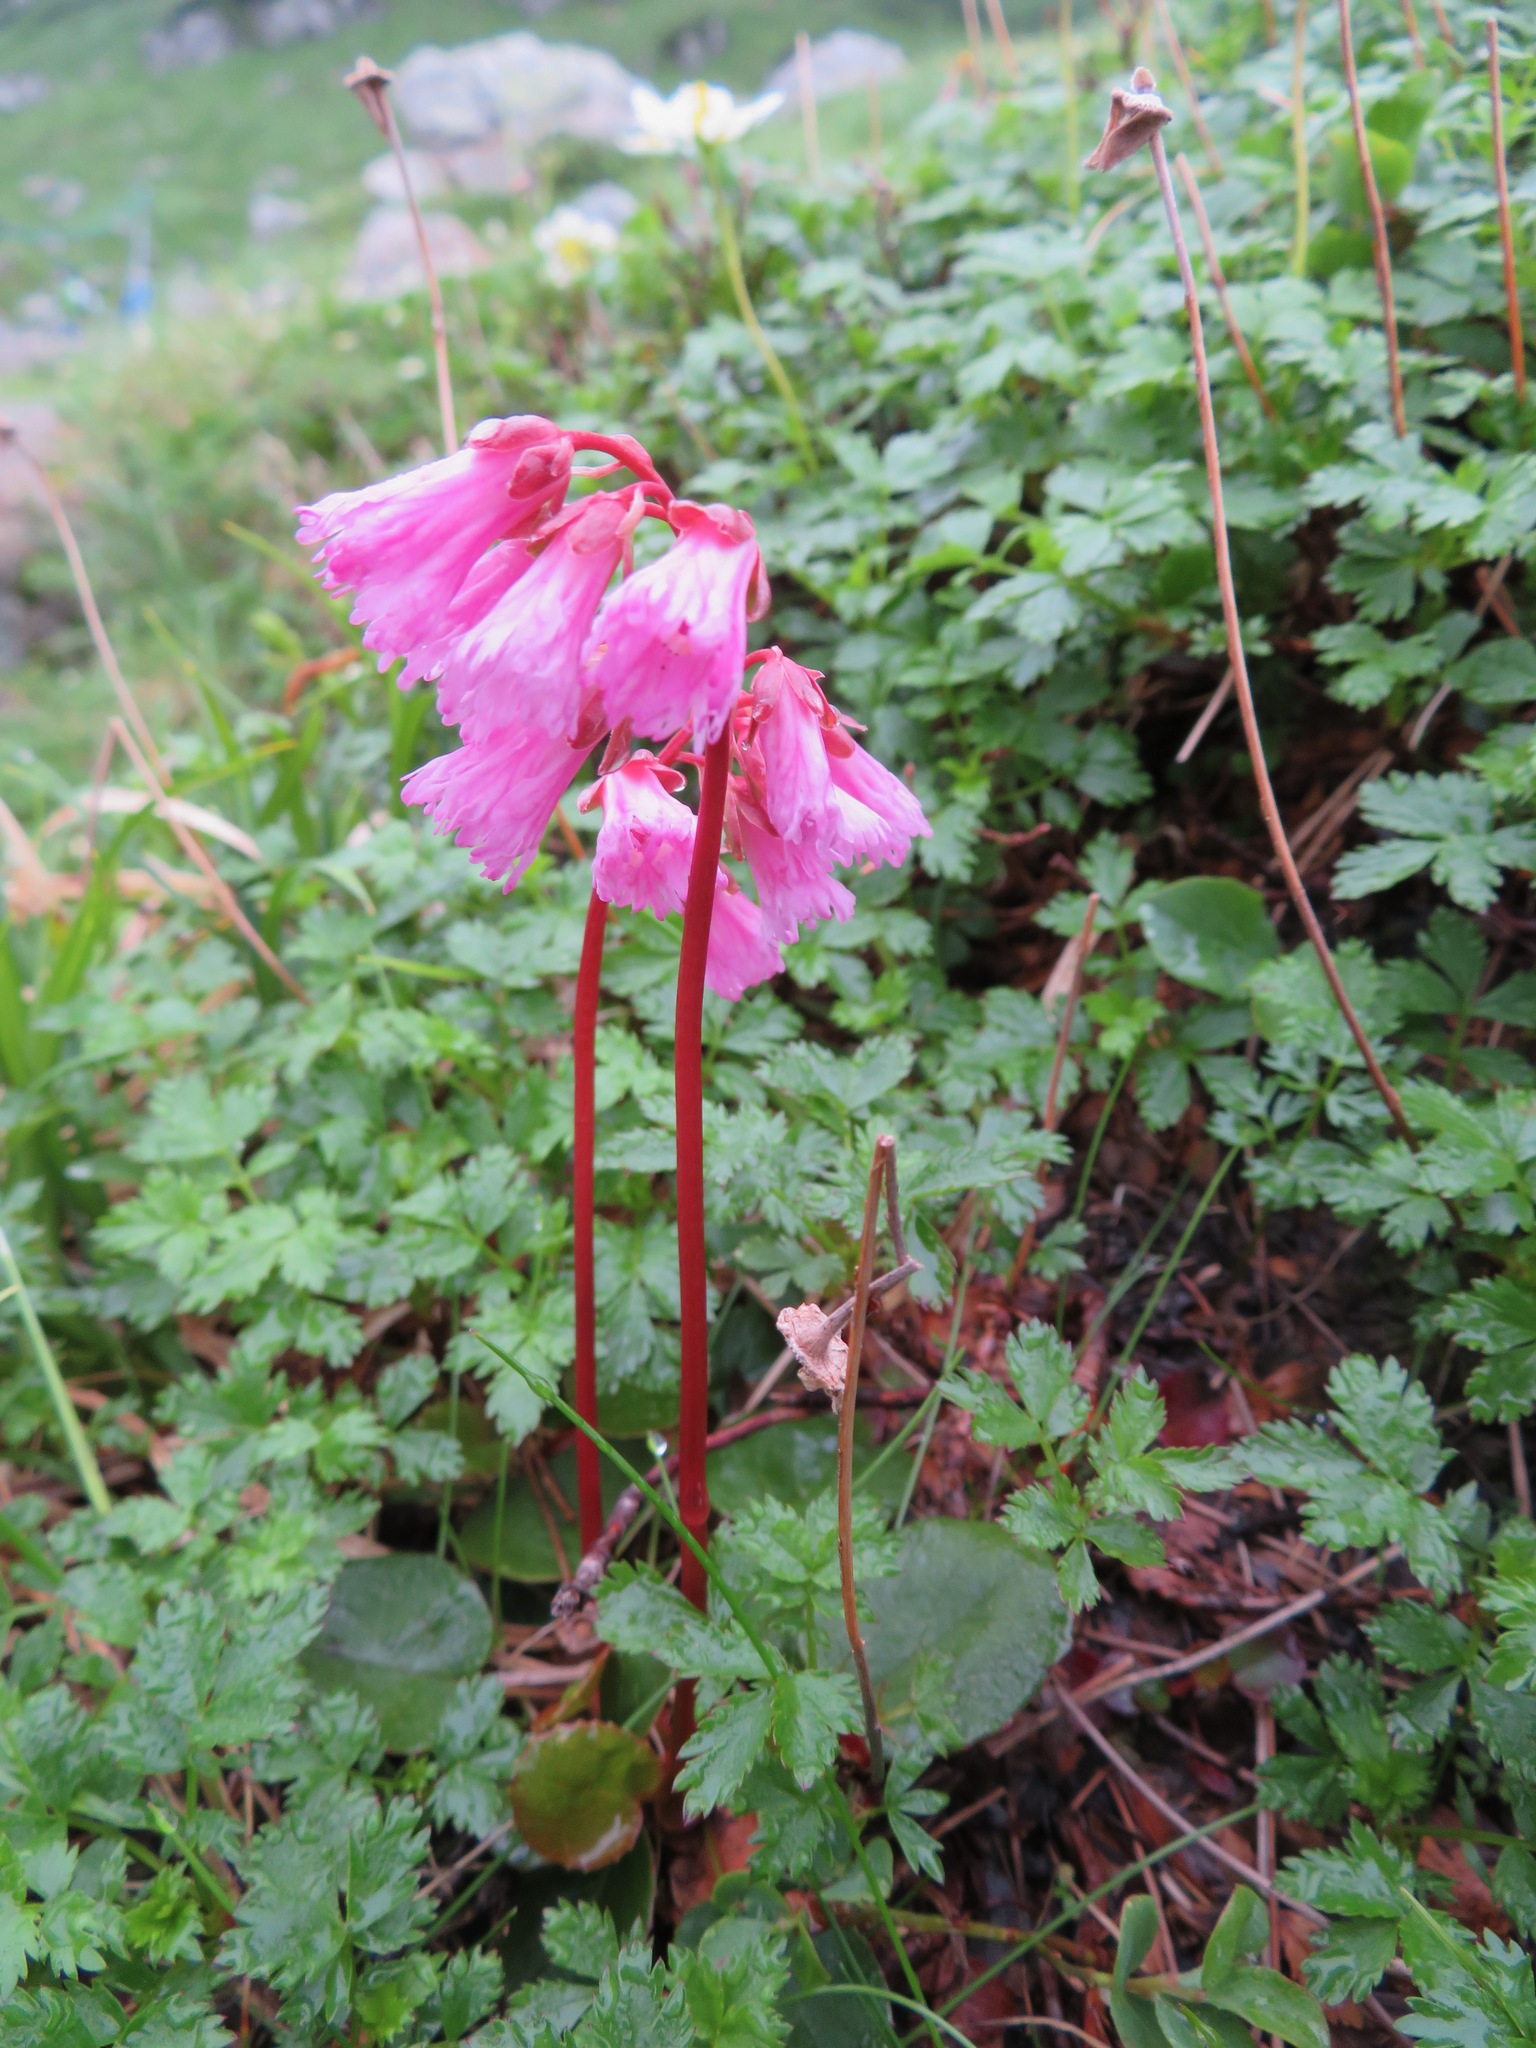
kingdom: Plantae
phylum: Tracheophyta
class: Magnoliopsida
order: Ericales
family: Diapensiaceae
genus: Schizocodon
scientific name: Schizocodon soldanelloides
